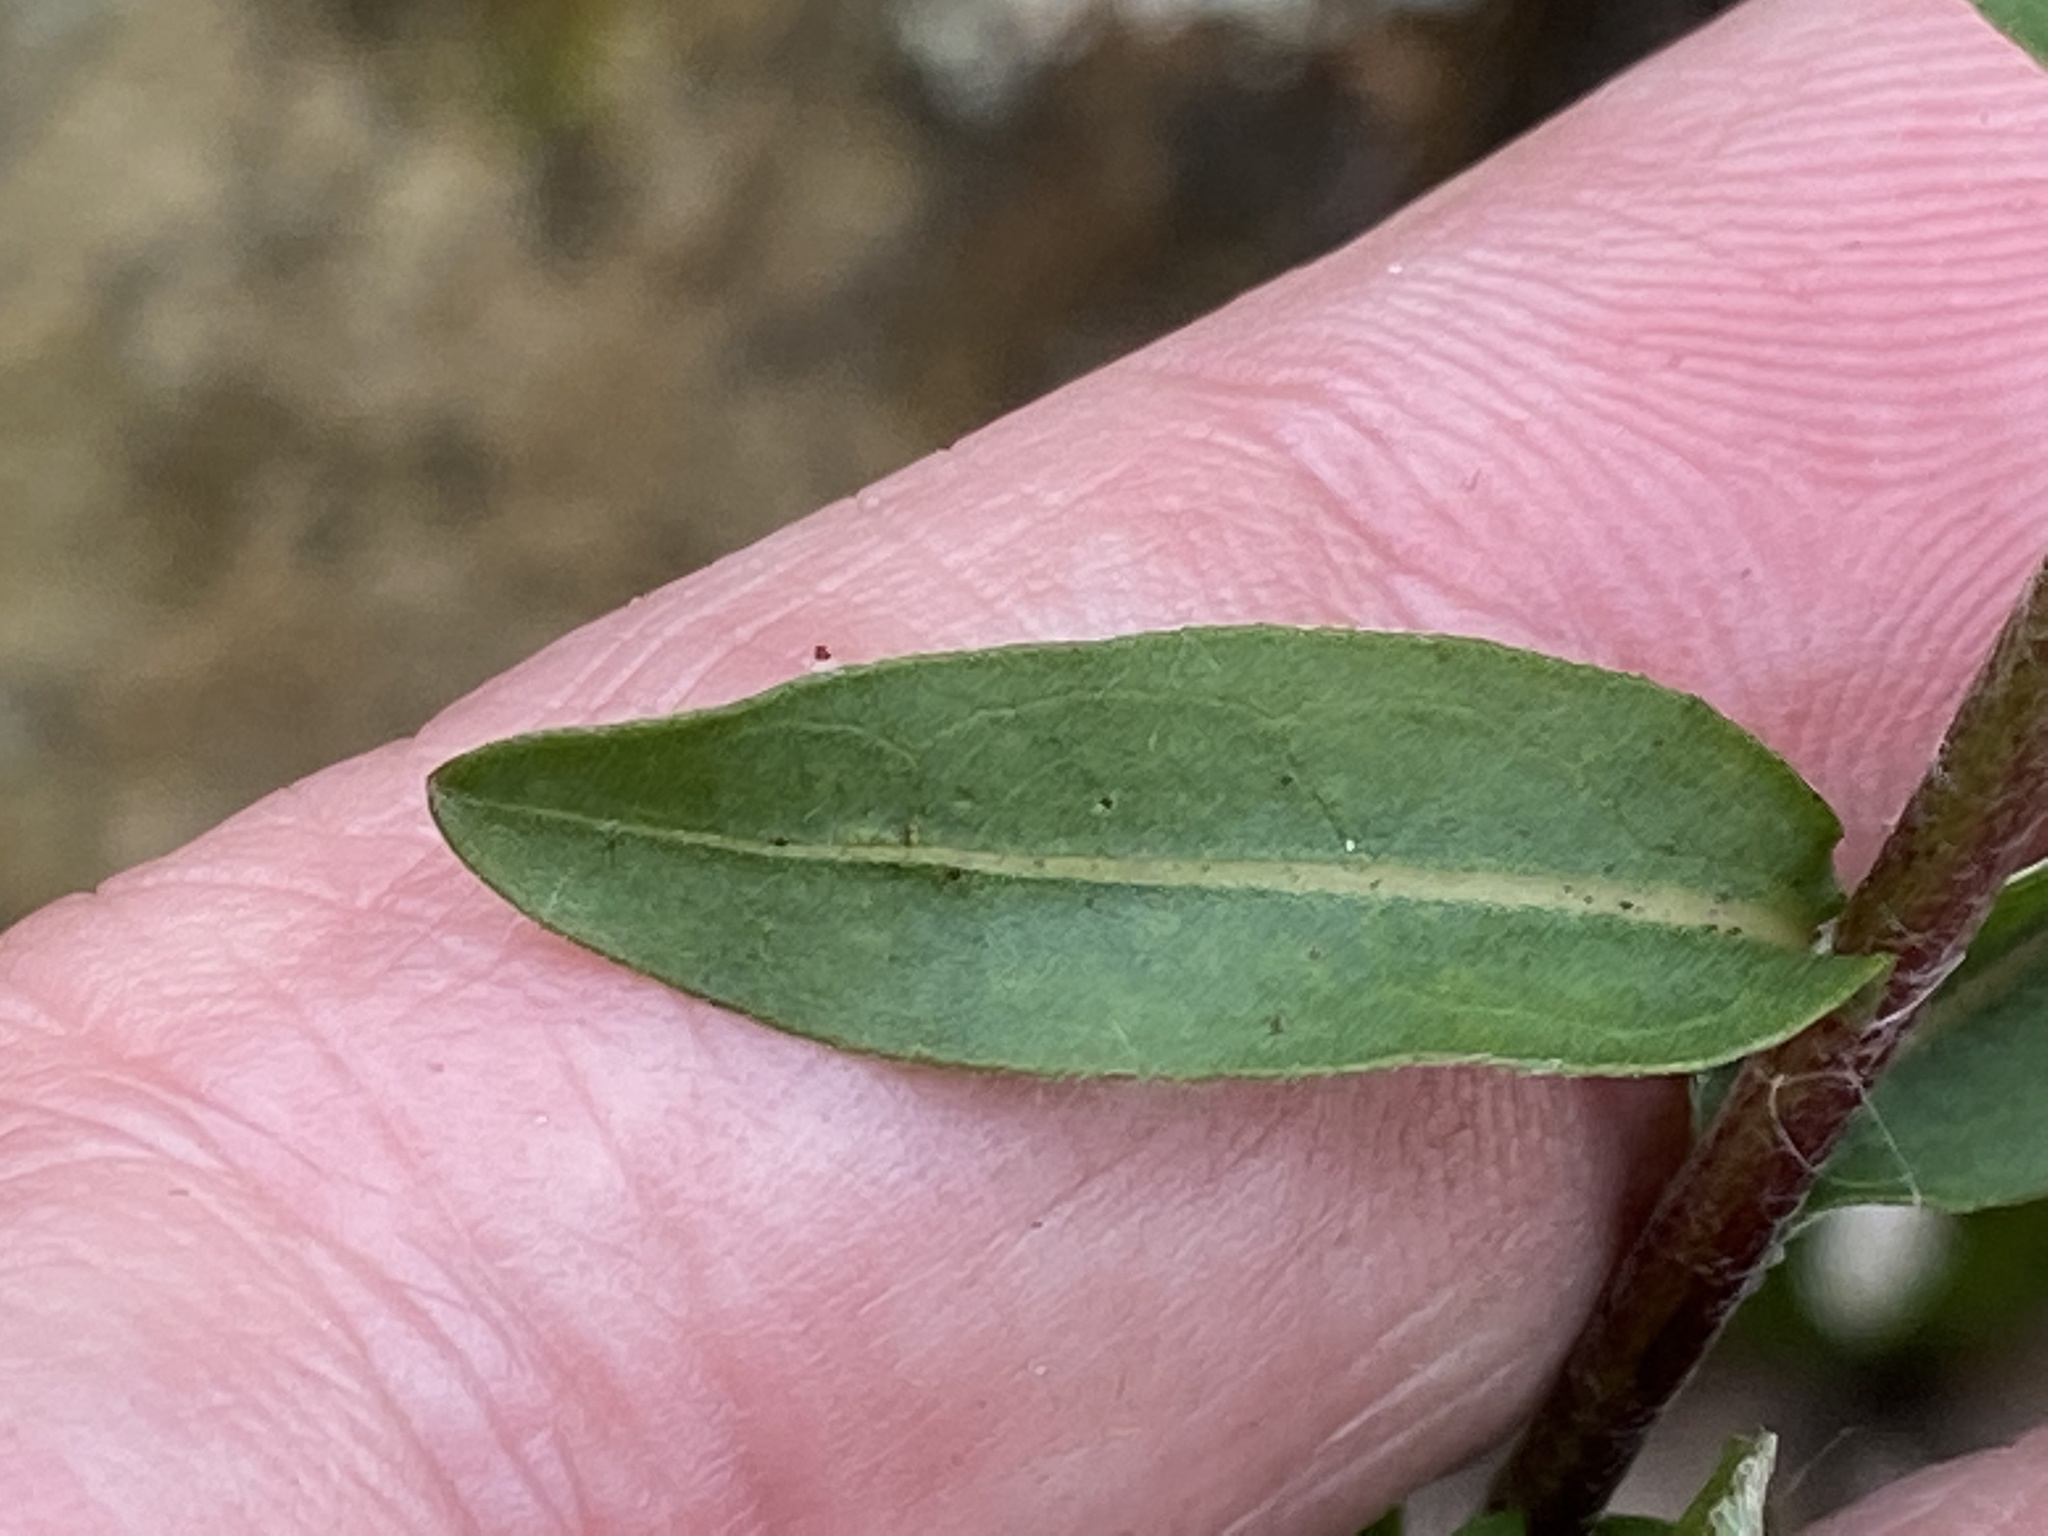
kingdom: Plantae
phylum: Tracheophyta
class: Magnoliopsida
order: Asterales
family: Asteraceae
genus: Chrysopsis
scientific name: Chrysopsis mariana
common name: Maryland golden-aster
